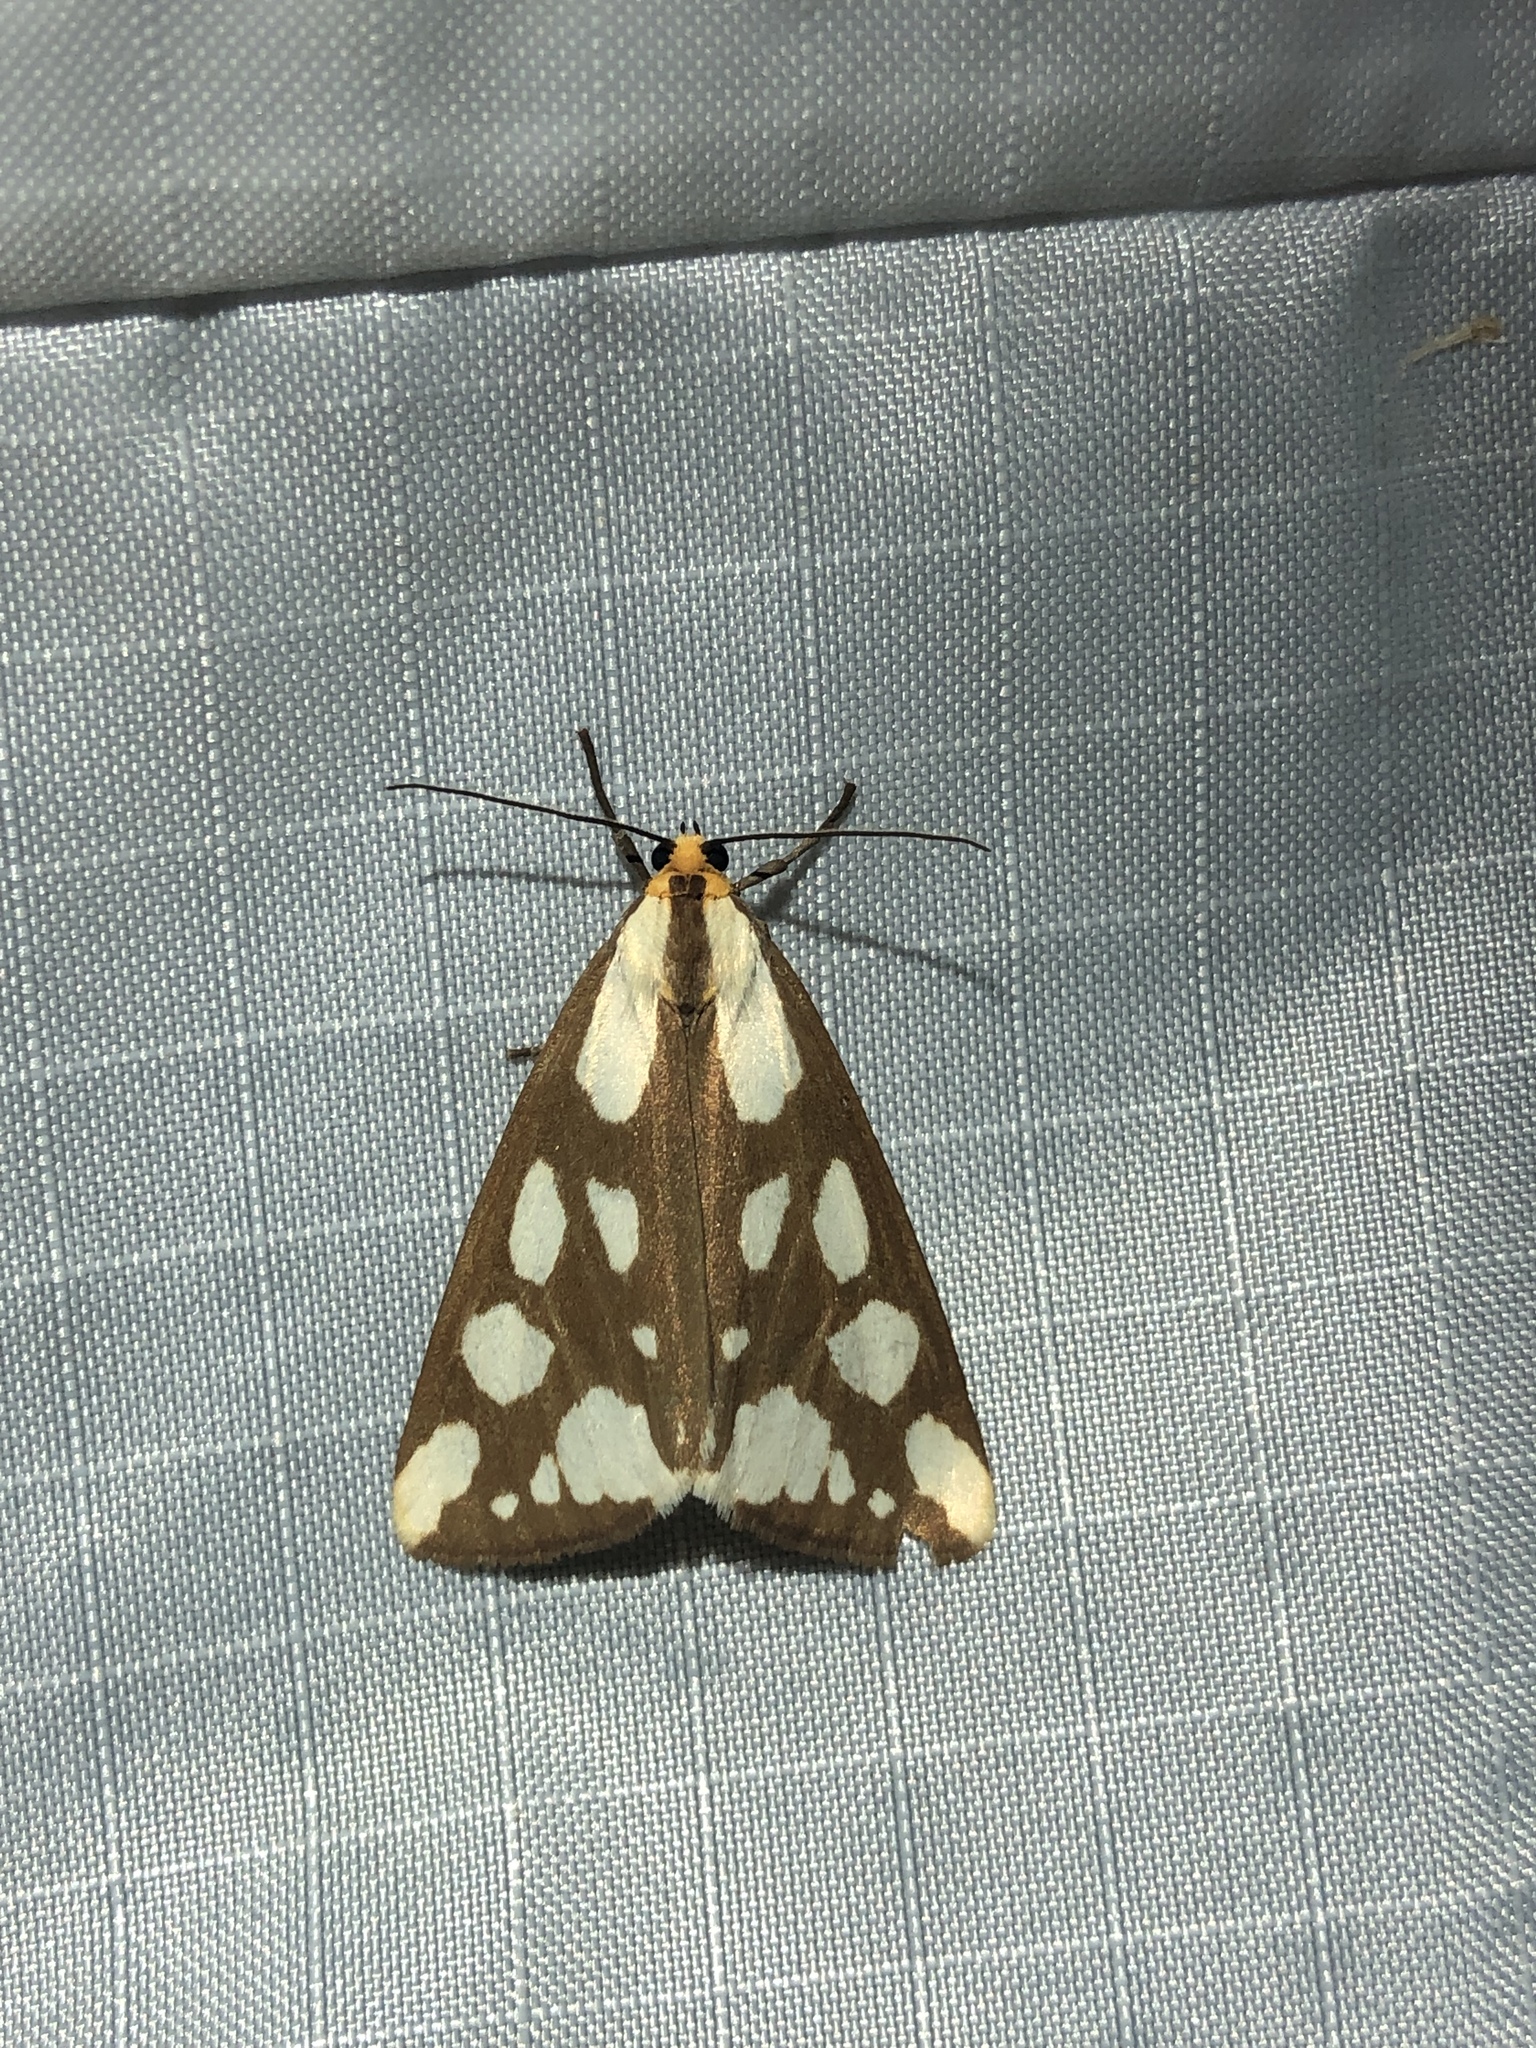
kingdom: Animalia
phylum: Arthropoda
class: Insecta
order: Lepidoptera
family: Erebidae
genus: Haploa
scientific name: Haploa confusa
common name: Confused haploa moth
